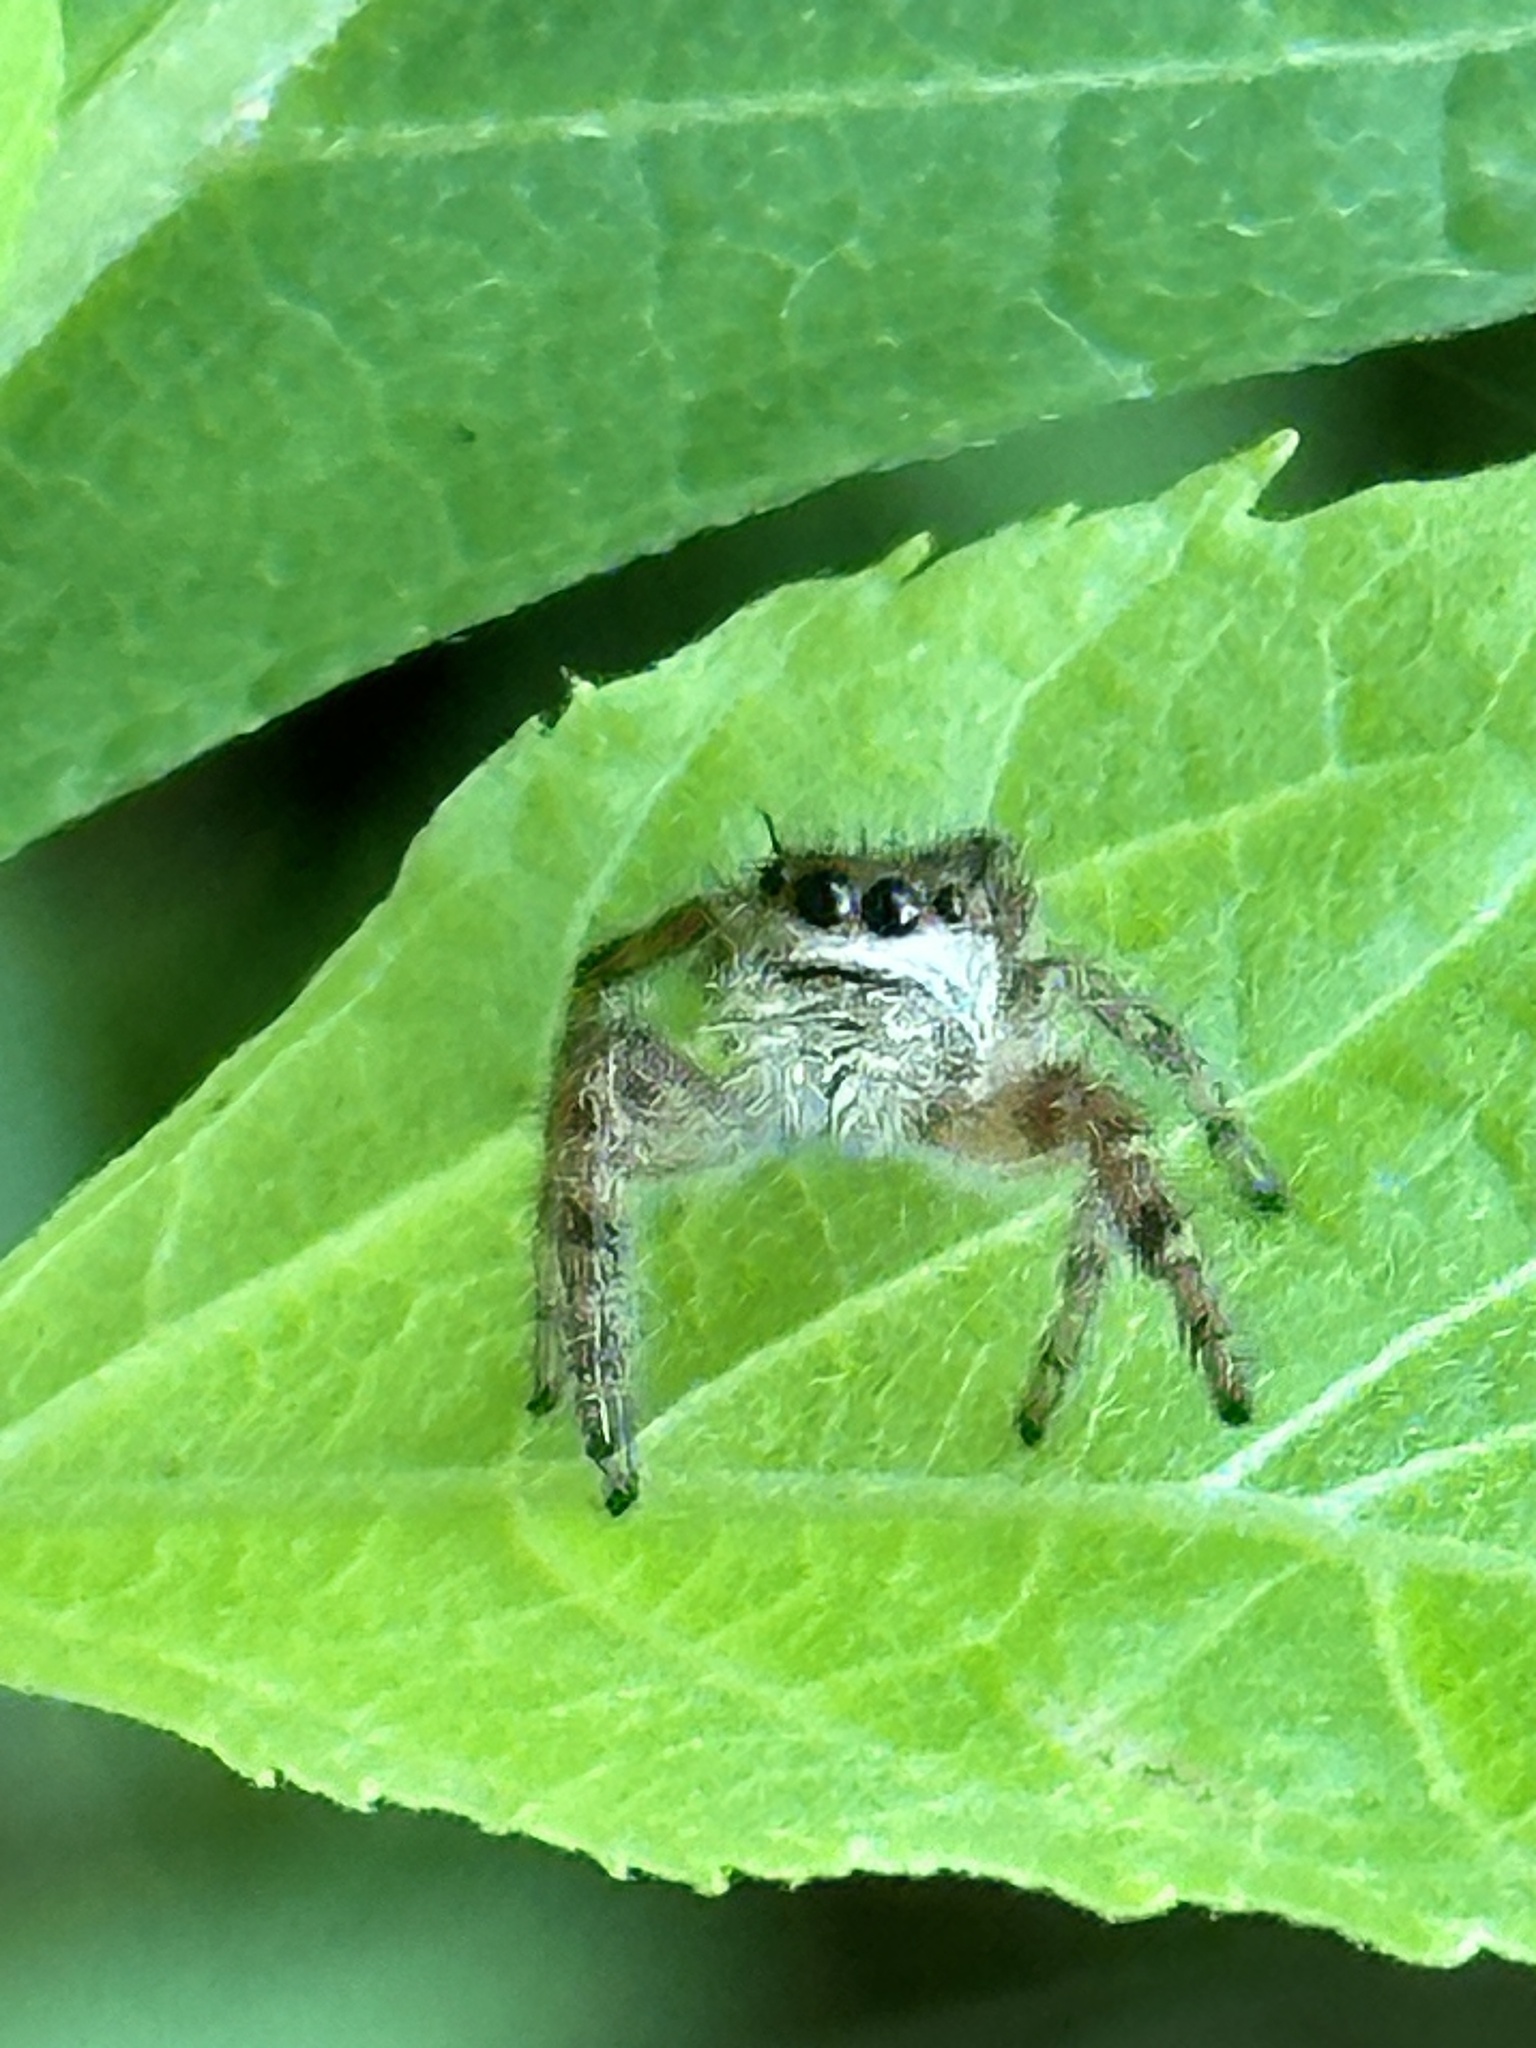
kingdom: Animalia
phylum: Arthropoda
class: Arachnida
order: Araneae
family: Salticidae
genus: Phidippus
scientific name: Phidippus princeps
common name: Grayish jumping spider
